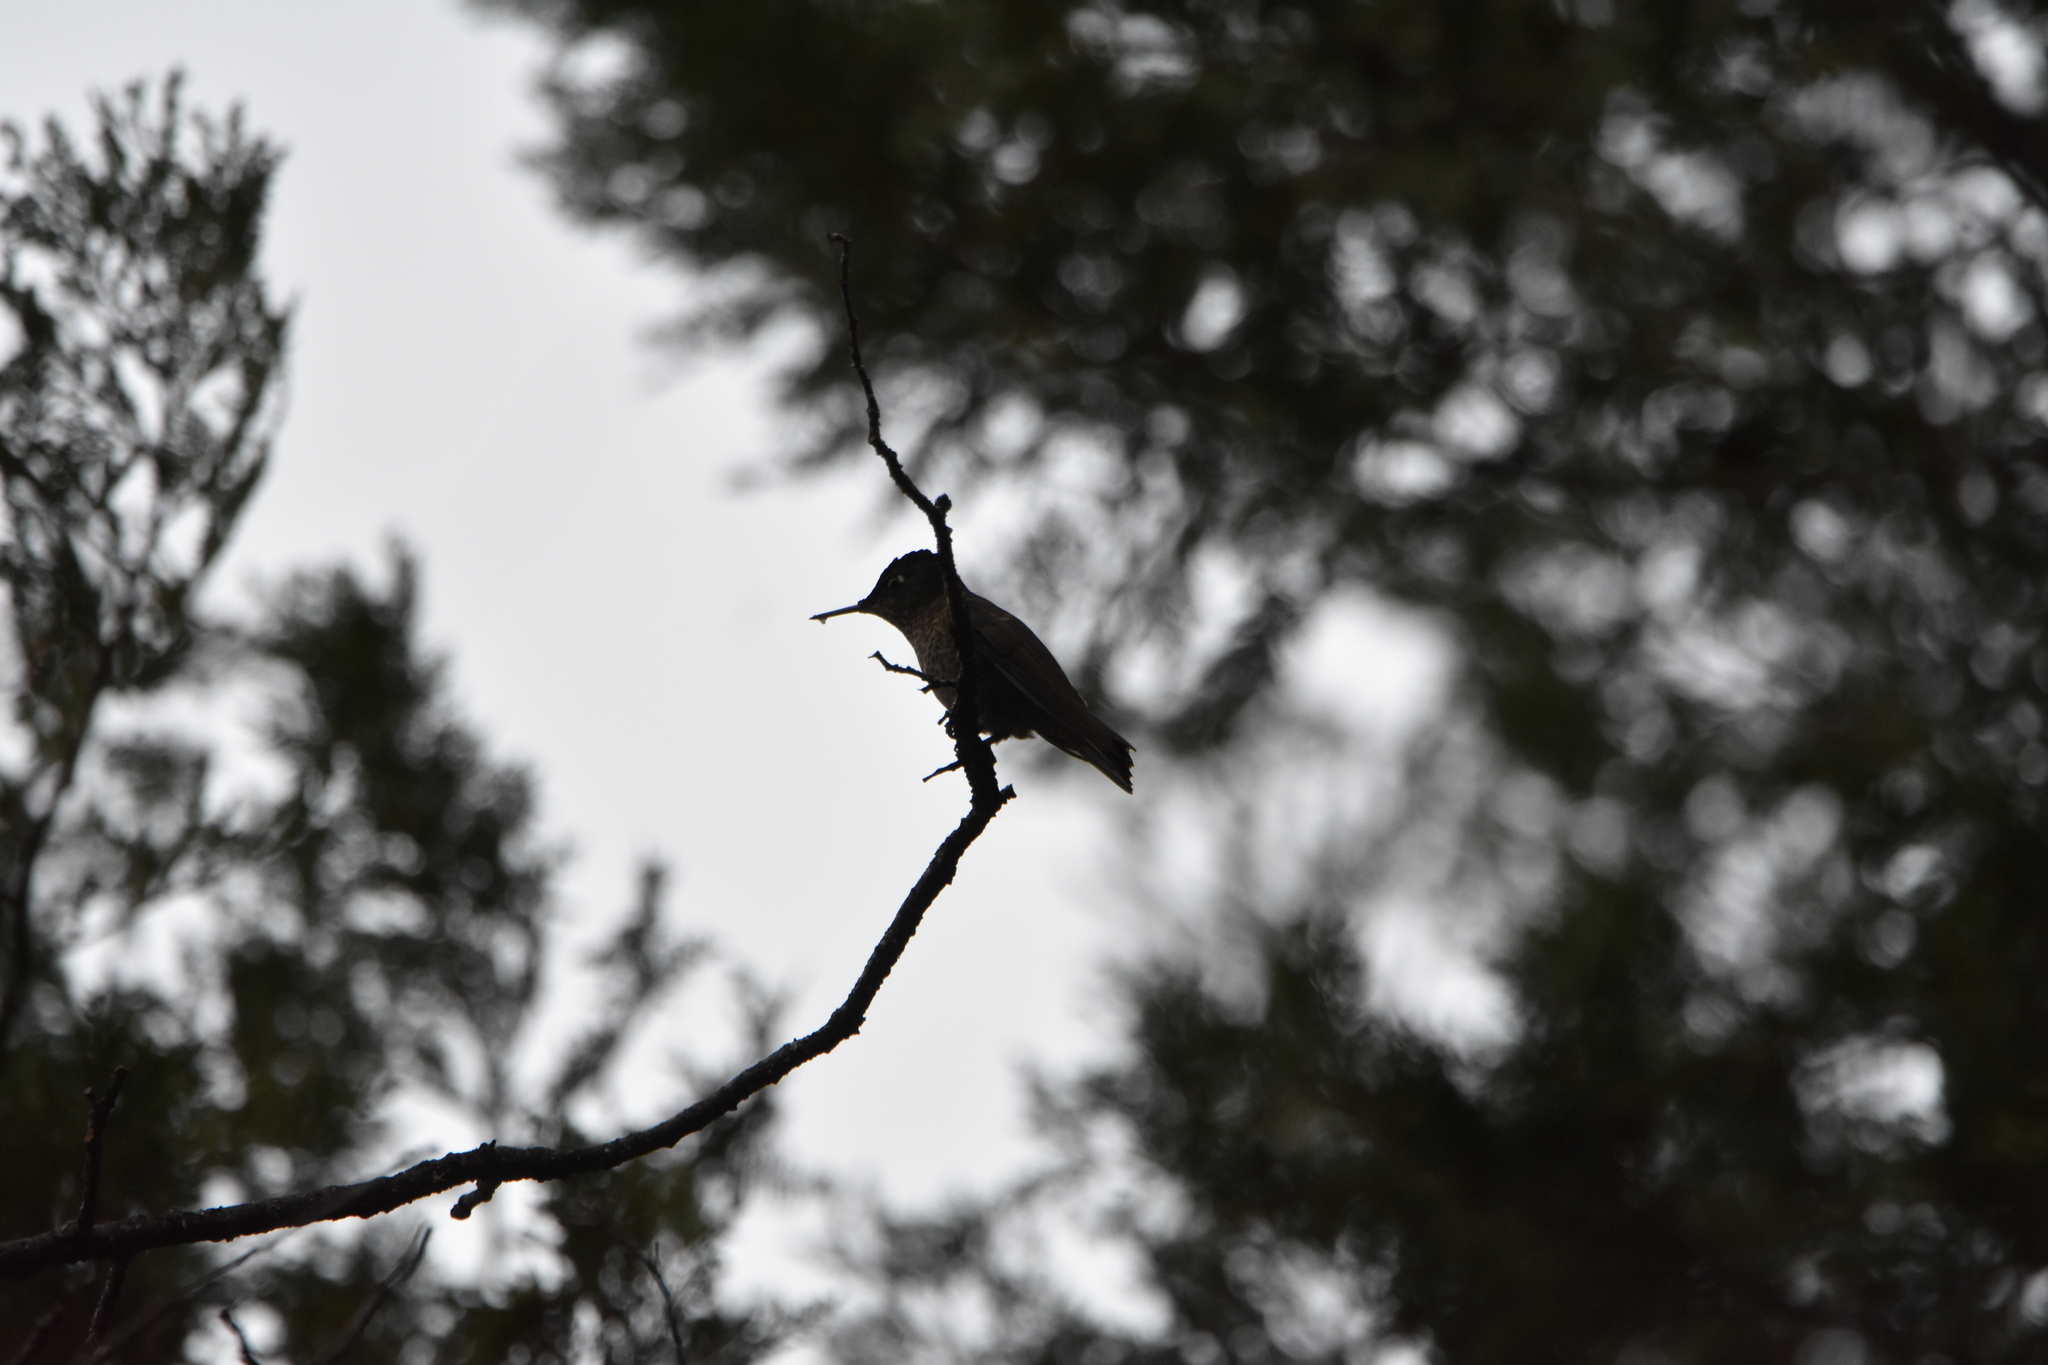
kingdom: Animalia
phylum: Chordata
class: Aves
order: Apodiformes
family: Trochilidae
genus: Sephanoides
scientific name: Sephanoides sephaniodes
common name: Green-backed firecrown
